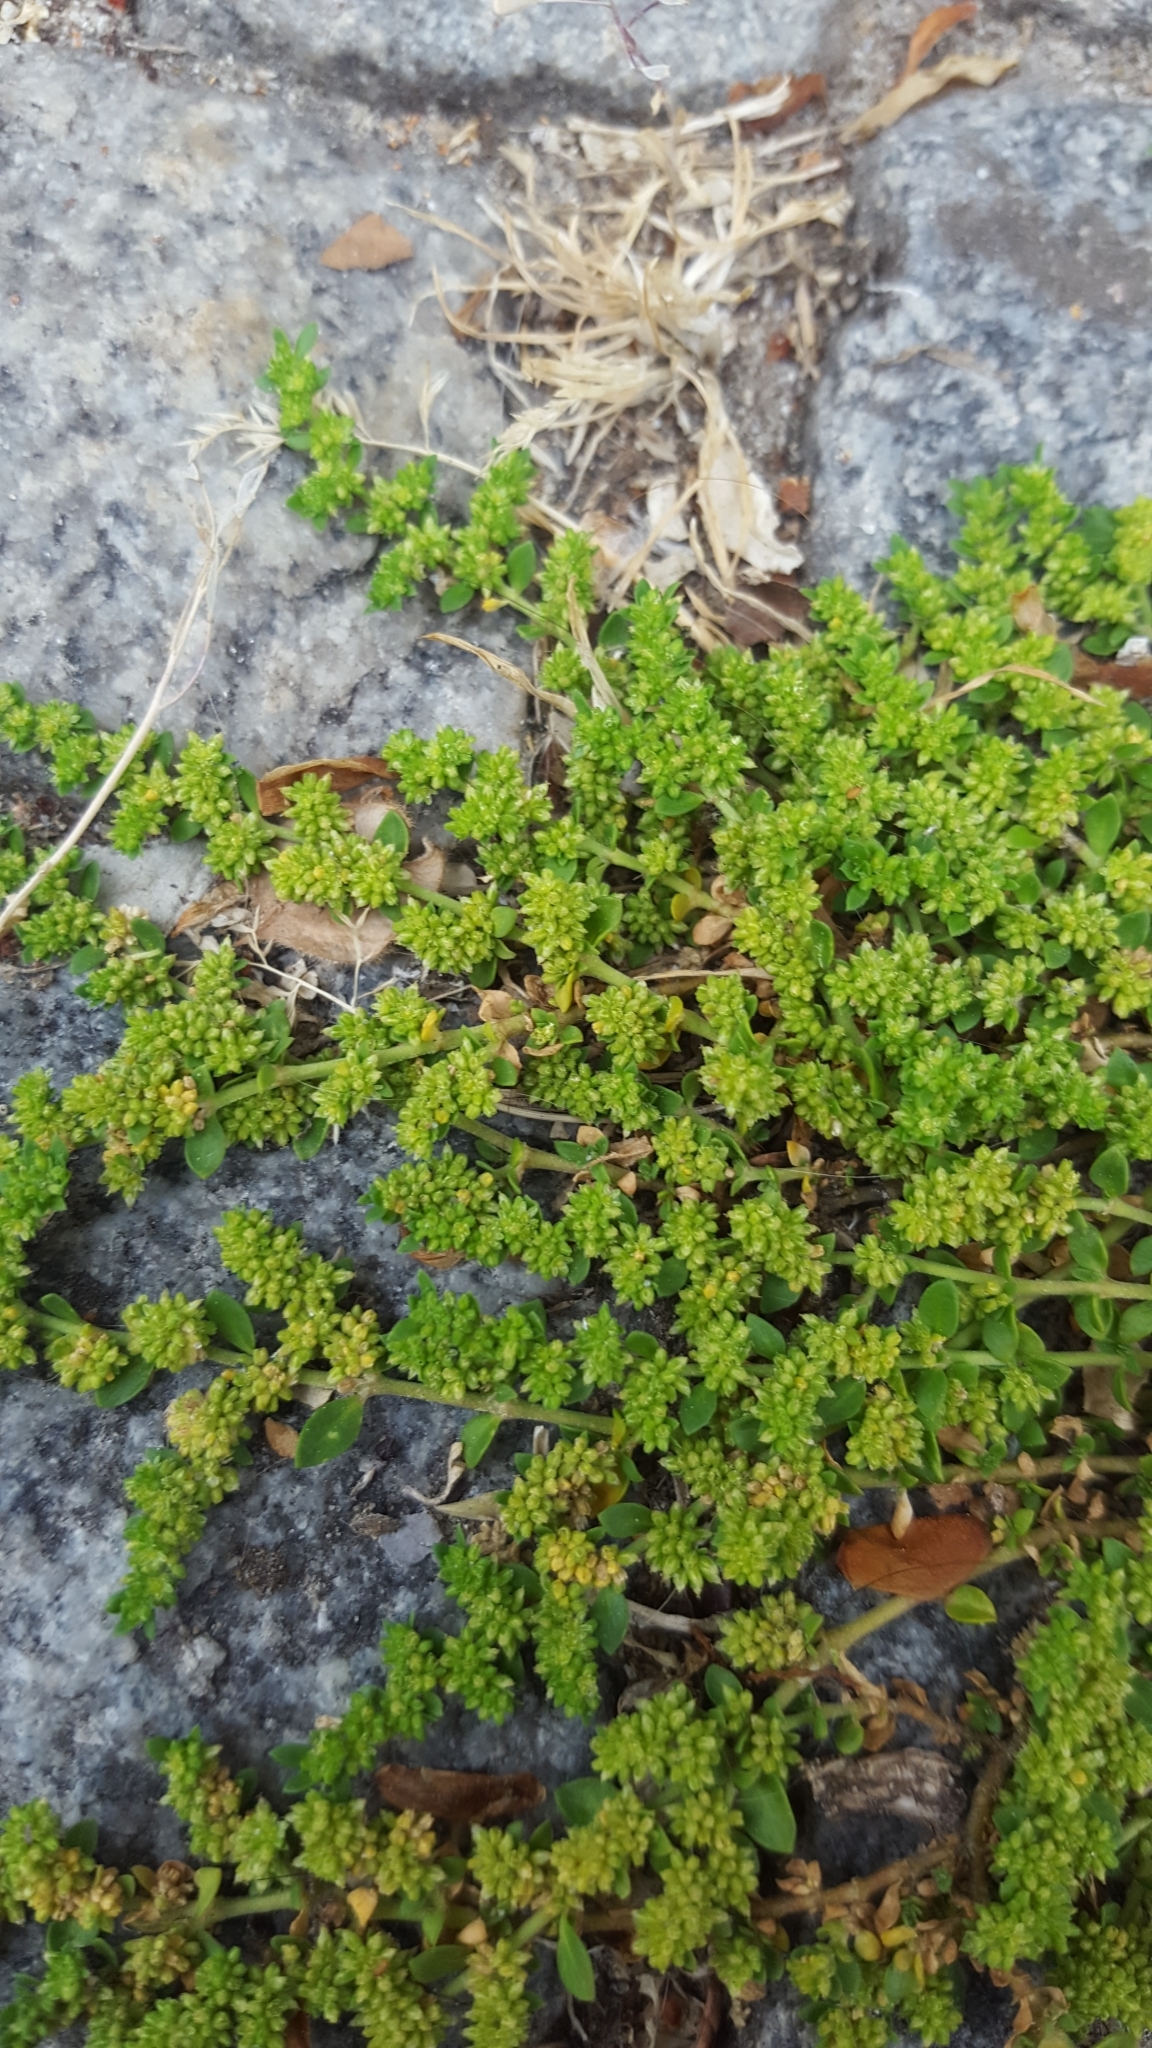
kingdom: Plantae
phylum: Tracheophyta
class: Magnoliopsida
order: Caryophyllales
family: Caryophyllaceae
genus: Herniaria
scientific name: Herniaria glabra
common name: Smooth rupturewort
